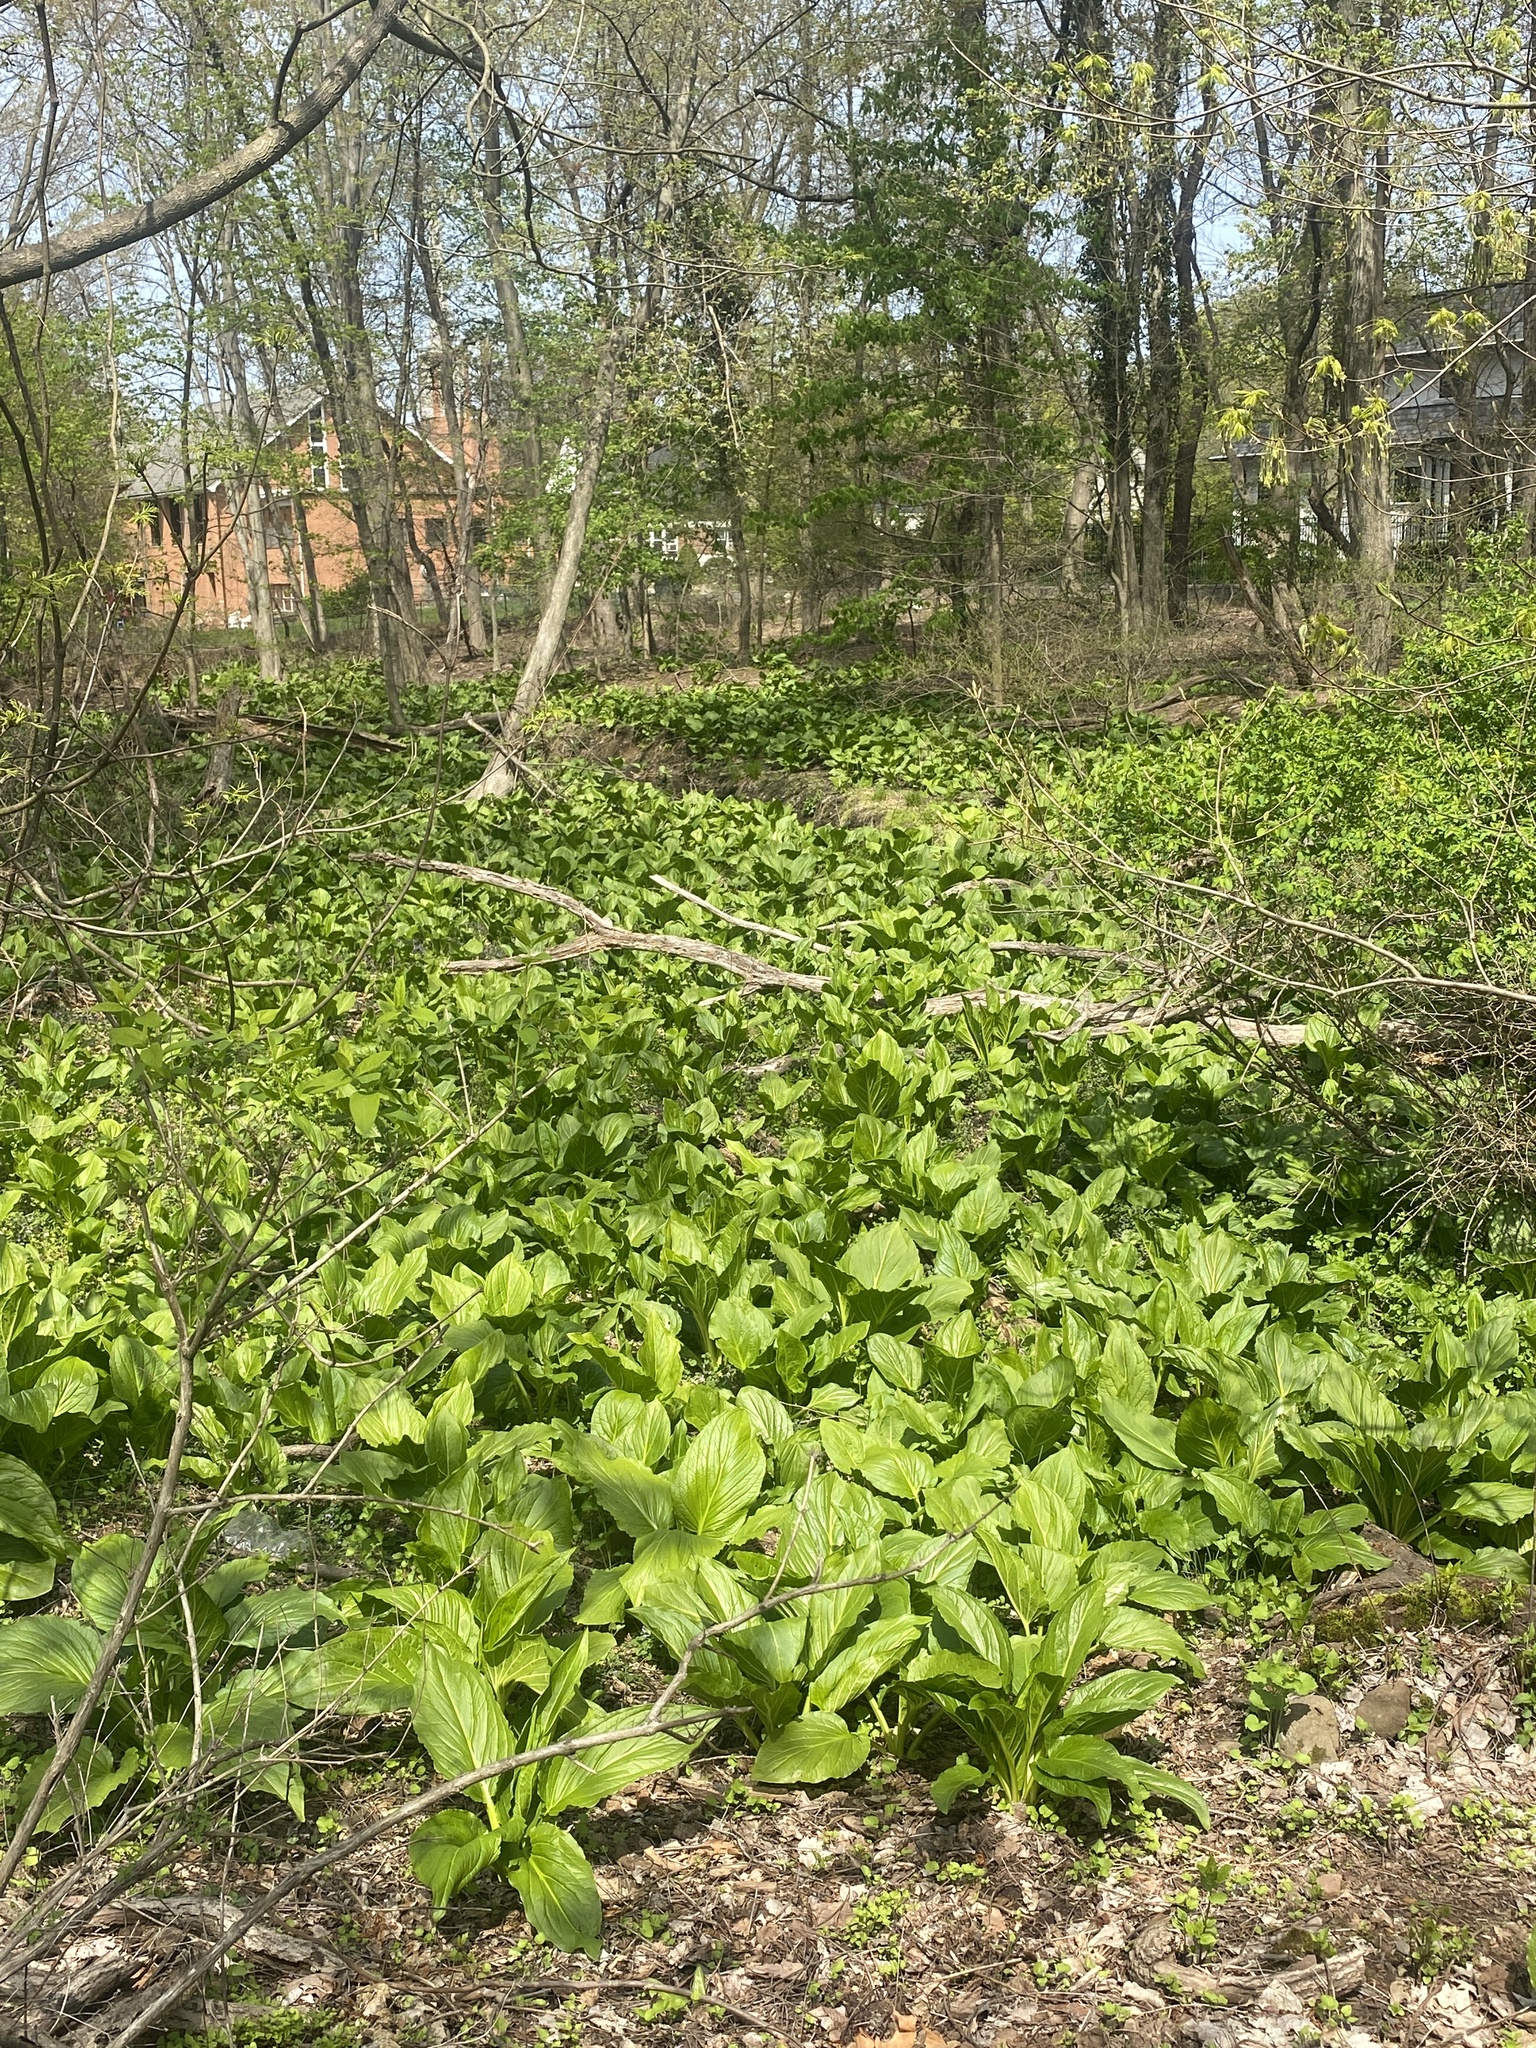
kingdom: Plantae
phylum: Tracheophyta
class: Liliopsida
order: Alismatales
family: Araceae
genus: Symplocarpus
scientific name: Symplocarpus foetidus
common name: Eastern skunk cabbage
